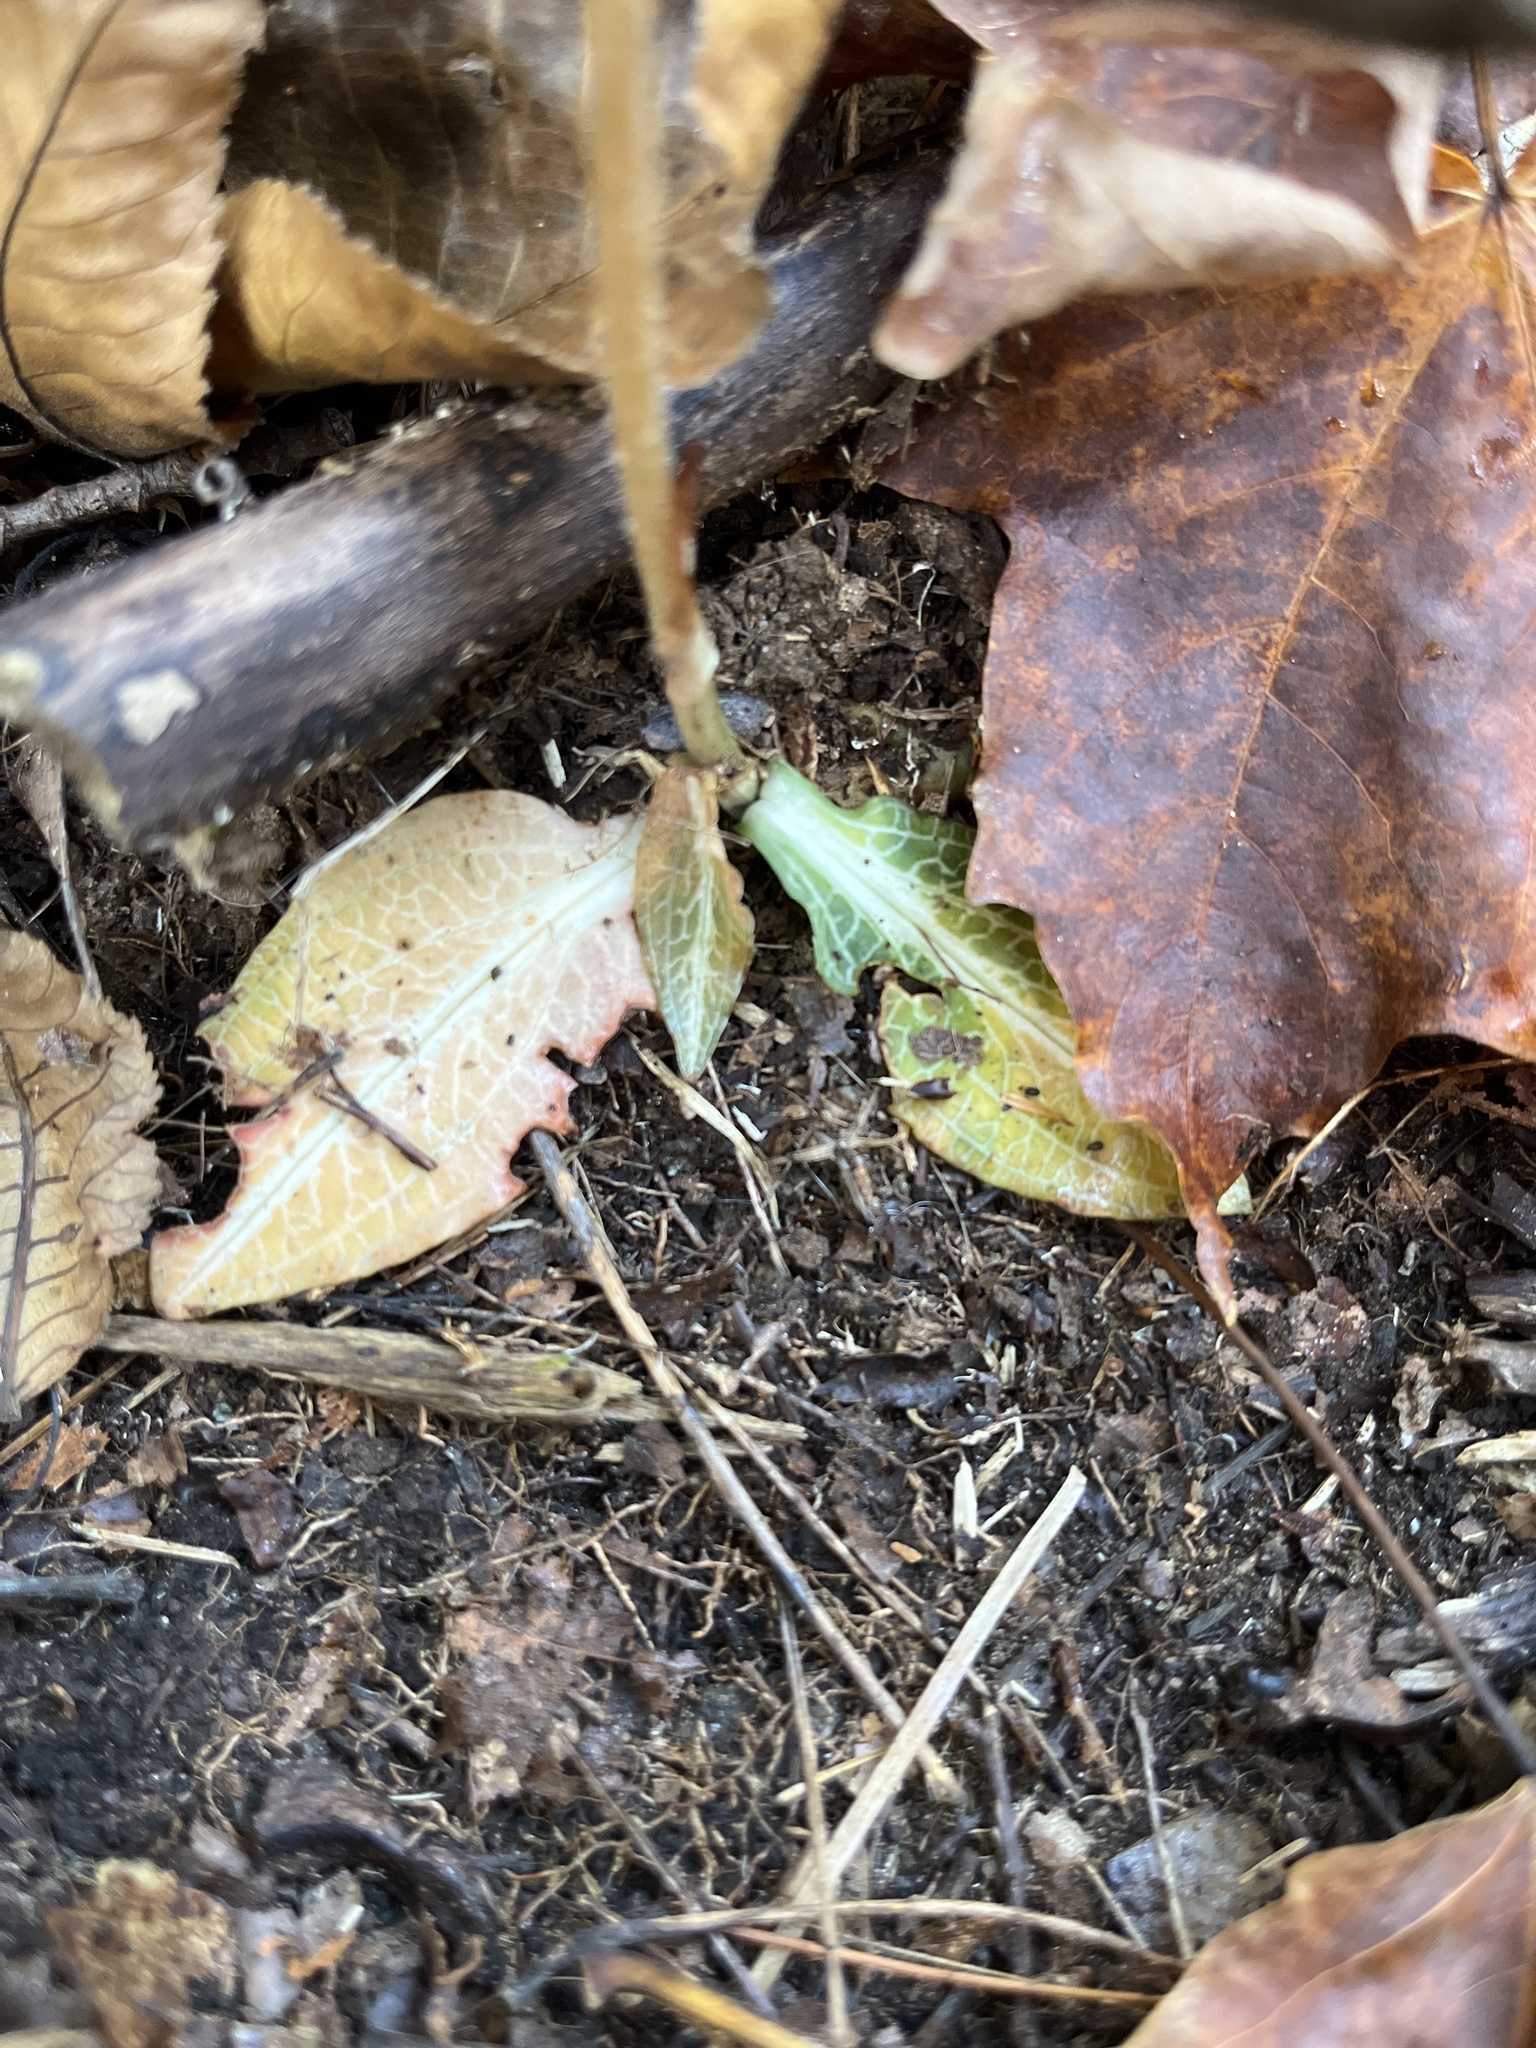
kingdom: Plantae
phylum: Tracheophyta
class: Liliopsida
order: Asparagales
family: Orchidaceae
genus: Goodyera
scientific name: Goodyera pubescens
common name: Downy rattlesnake-plantain
